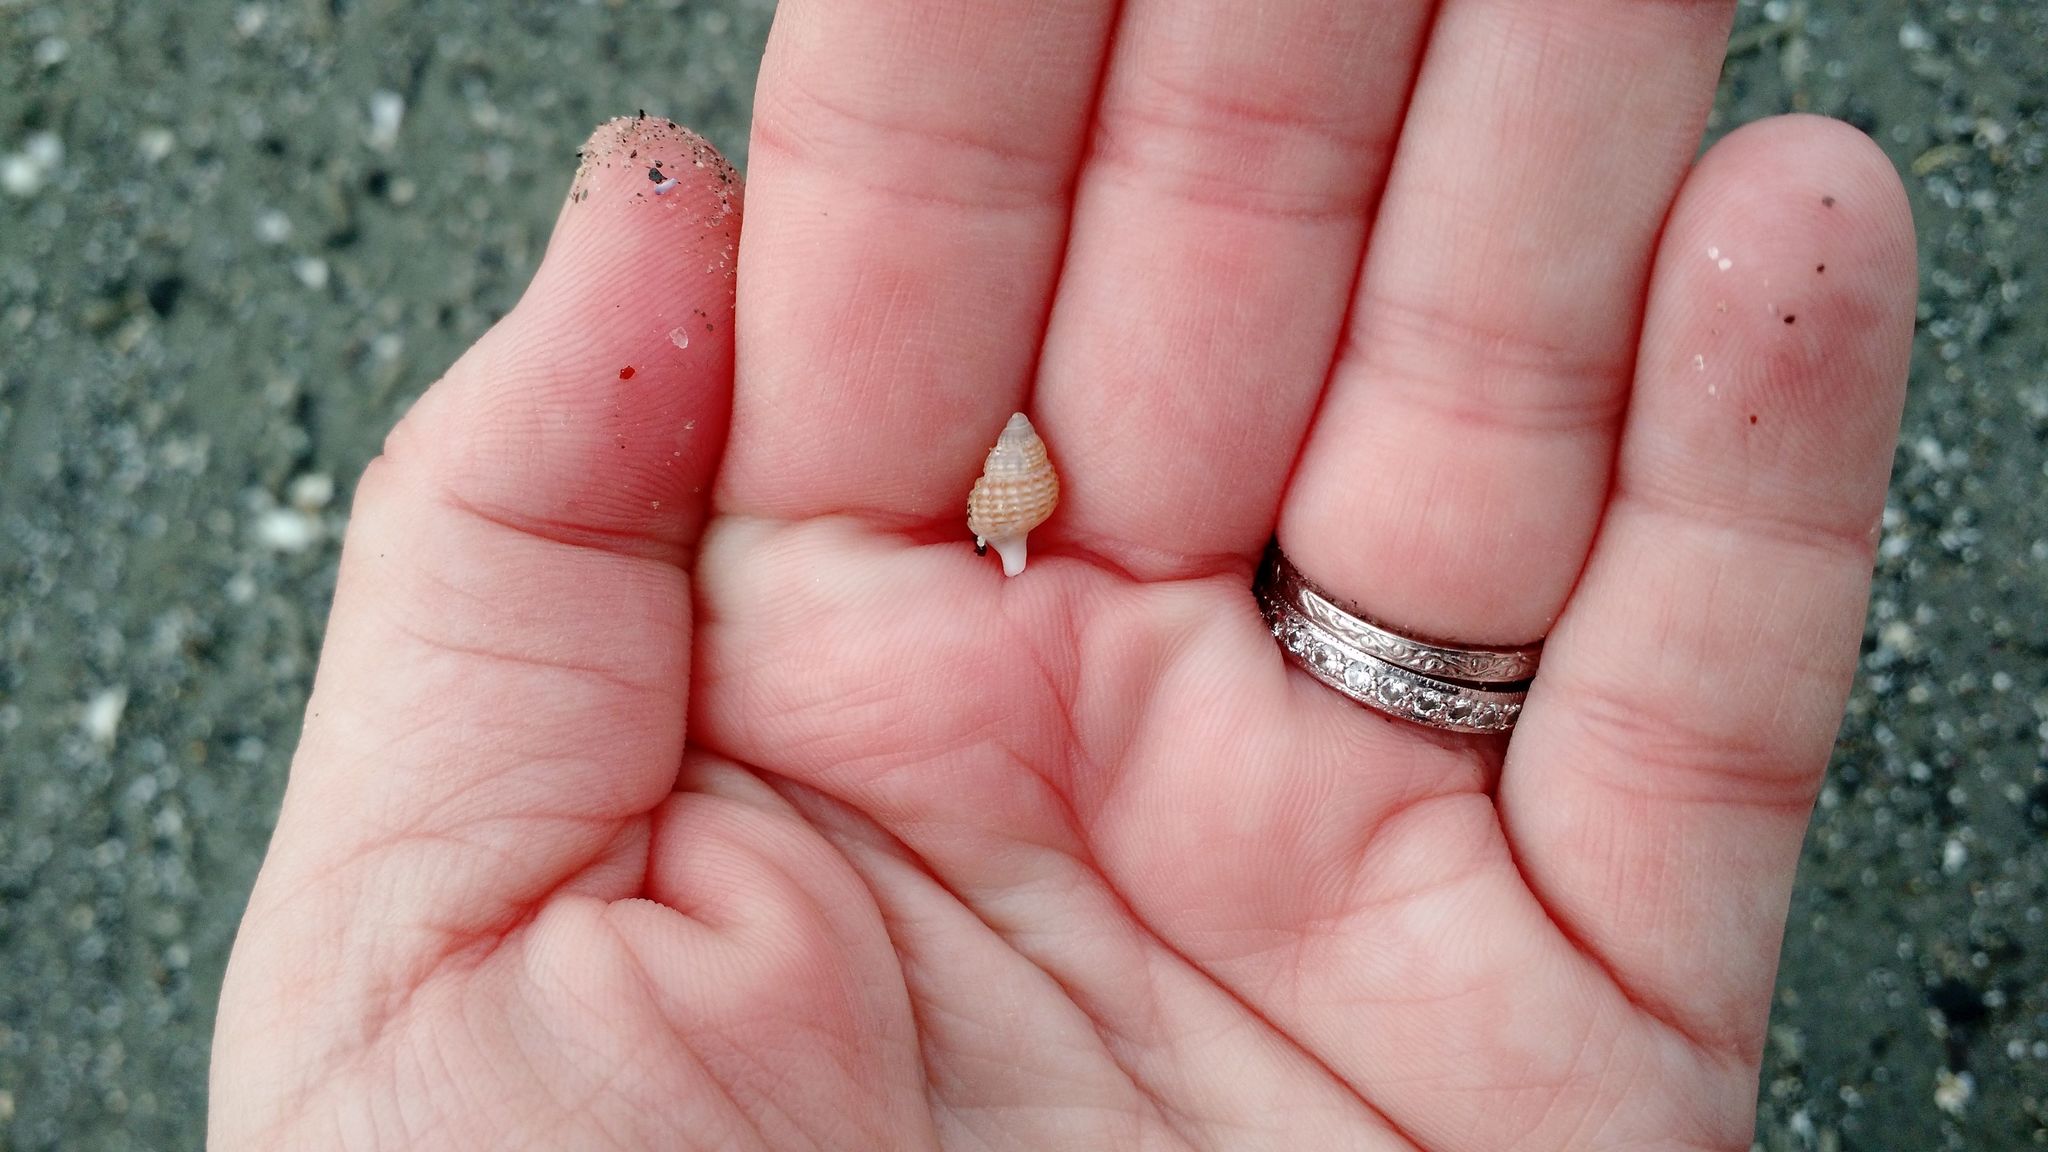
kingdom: Animalia
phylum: Mollusca
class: Gastropoda
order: Neogastropoda
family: Nassariidae
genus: Ilyanassa
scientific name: Ilyanassa trivittata
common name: Three-line mudsnail
